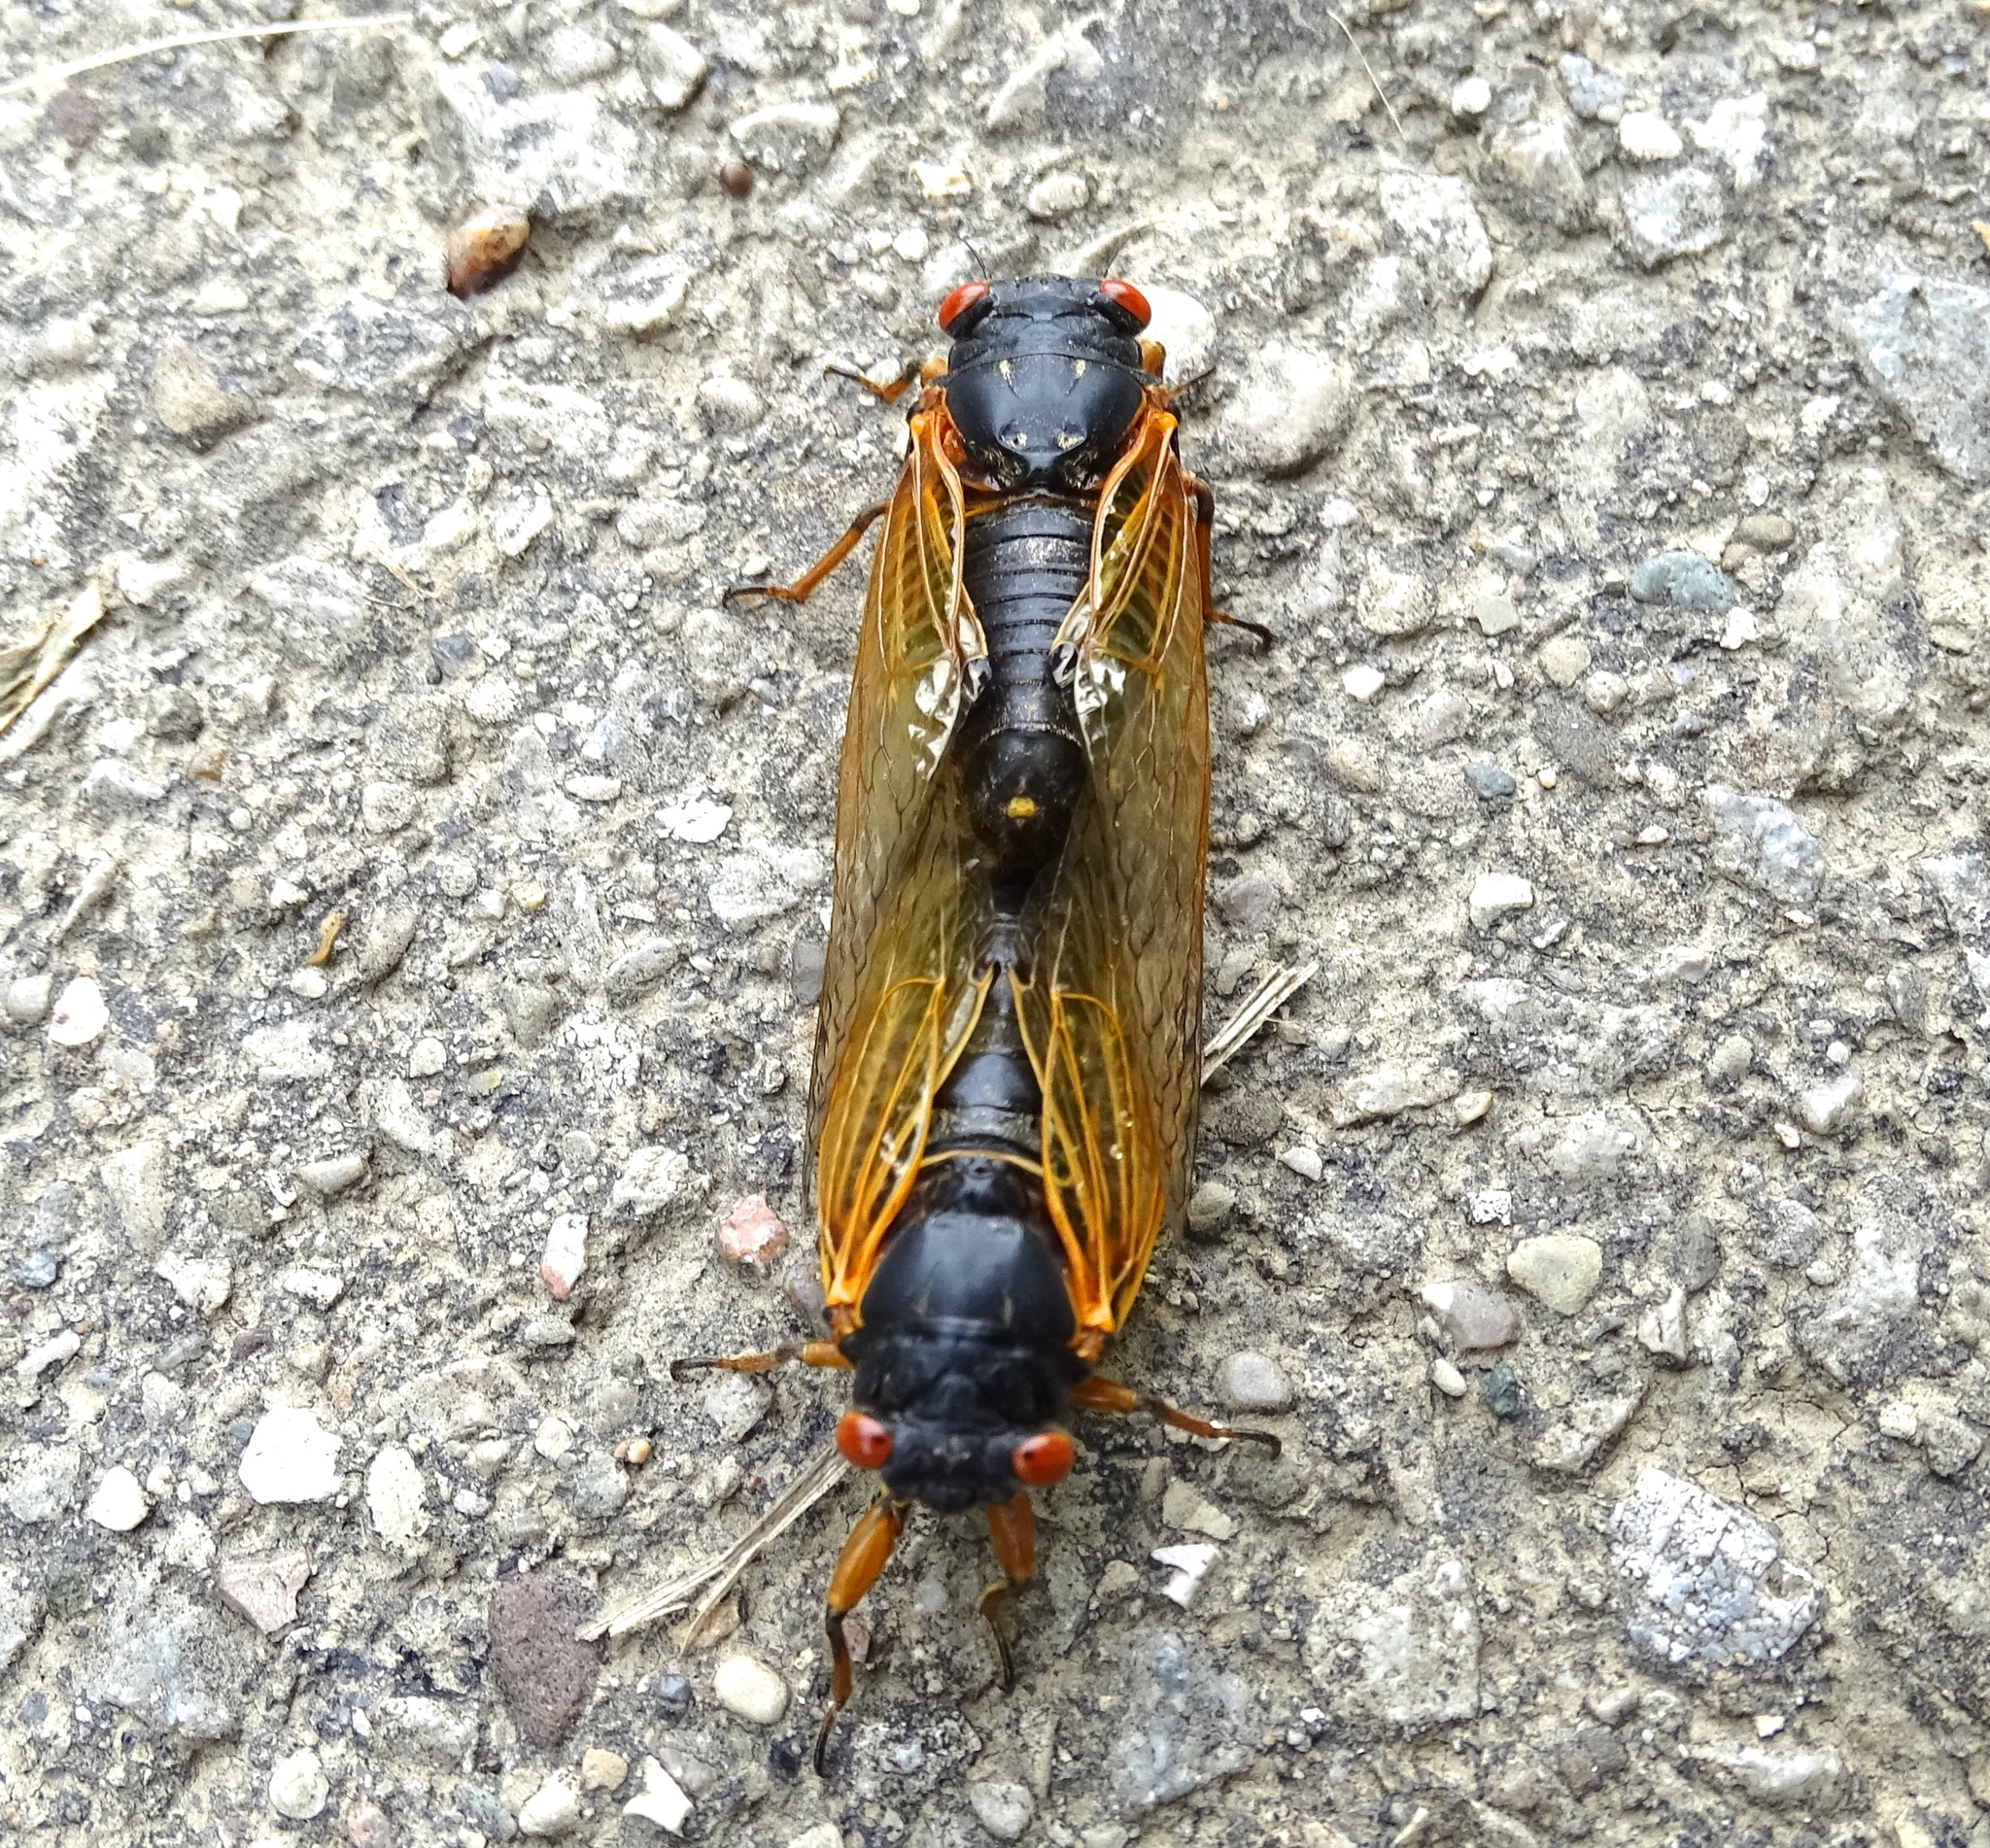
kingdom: Animalia
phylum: Arthropoda
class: Insecta
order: Hemiptera
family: Cicadidae
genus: Magicicada
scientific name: Magicicada
